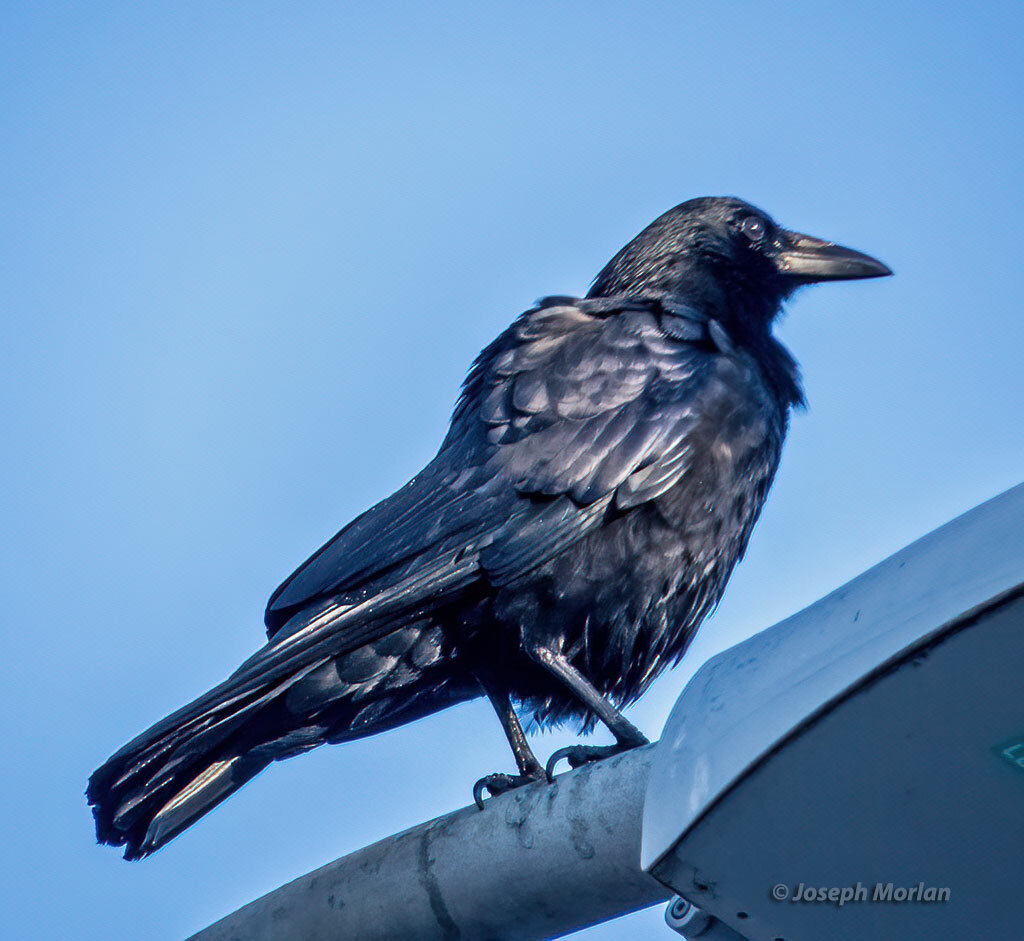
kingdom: Animalia
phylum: Chordata
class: Aves
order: Passeriformes
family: Corvidae
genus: Corvus
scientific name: Corvus brachyrhynchos
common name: American crow
